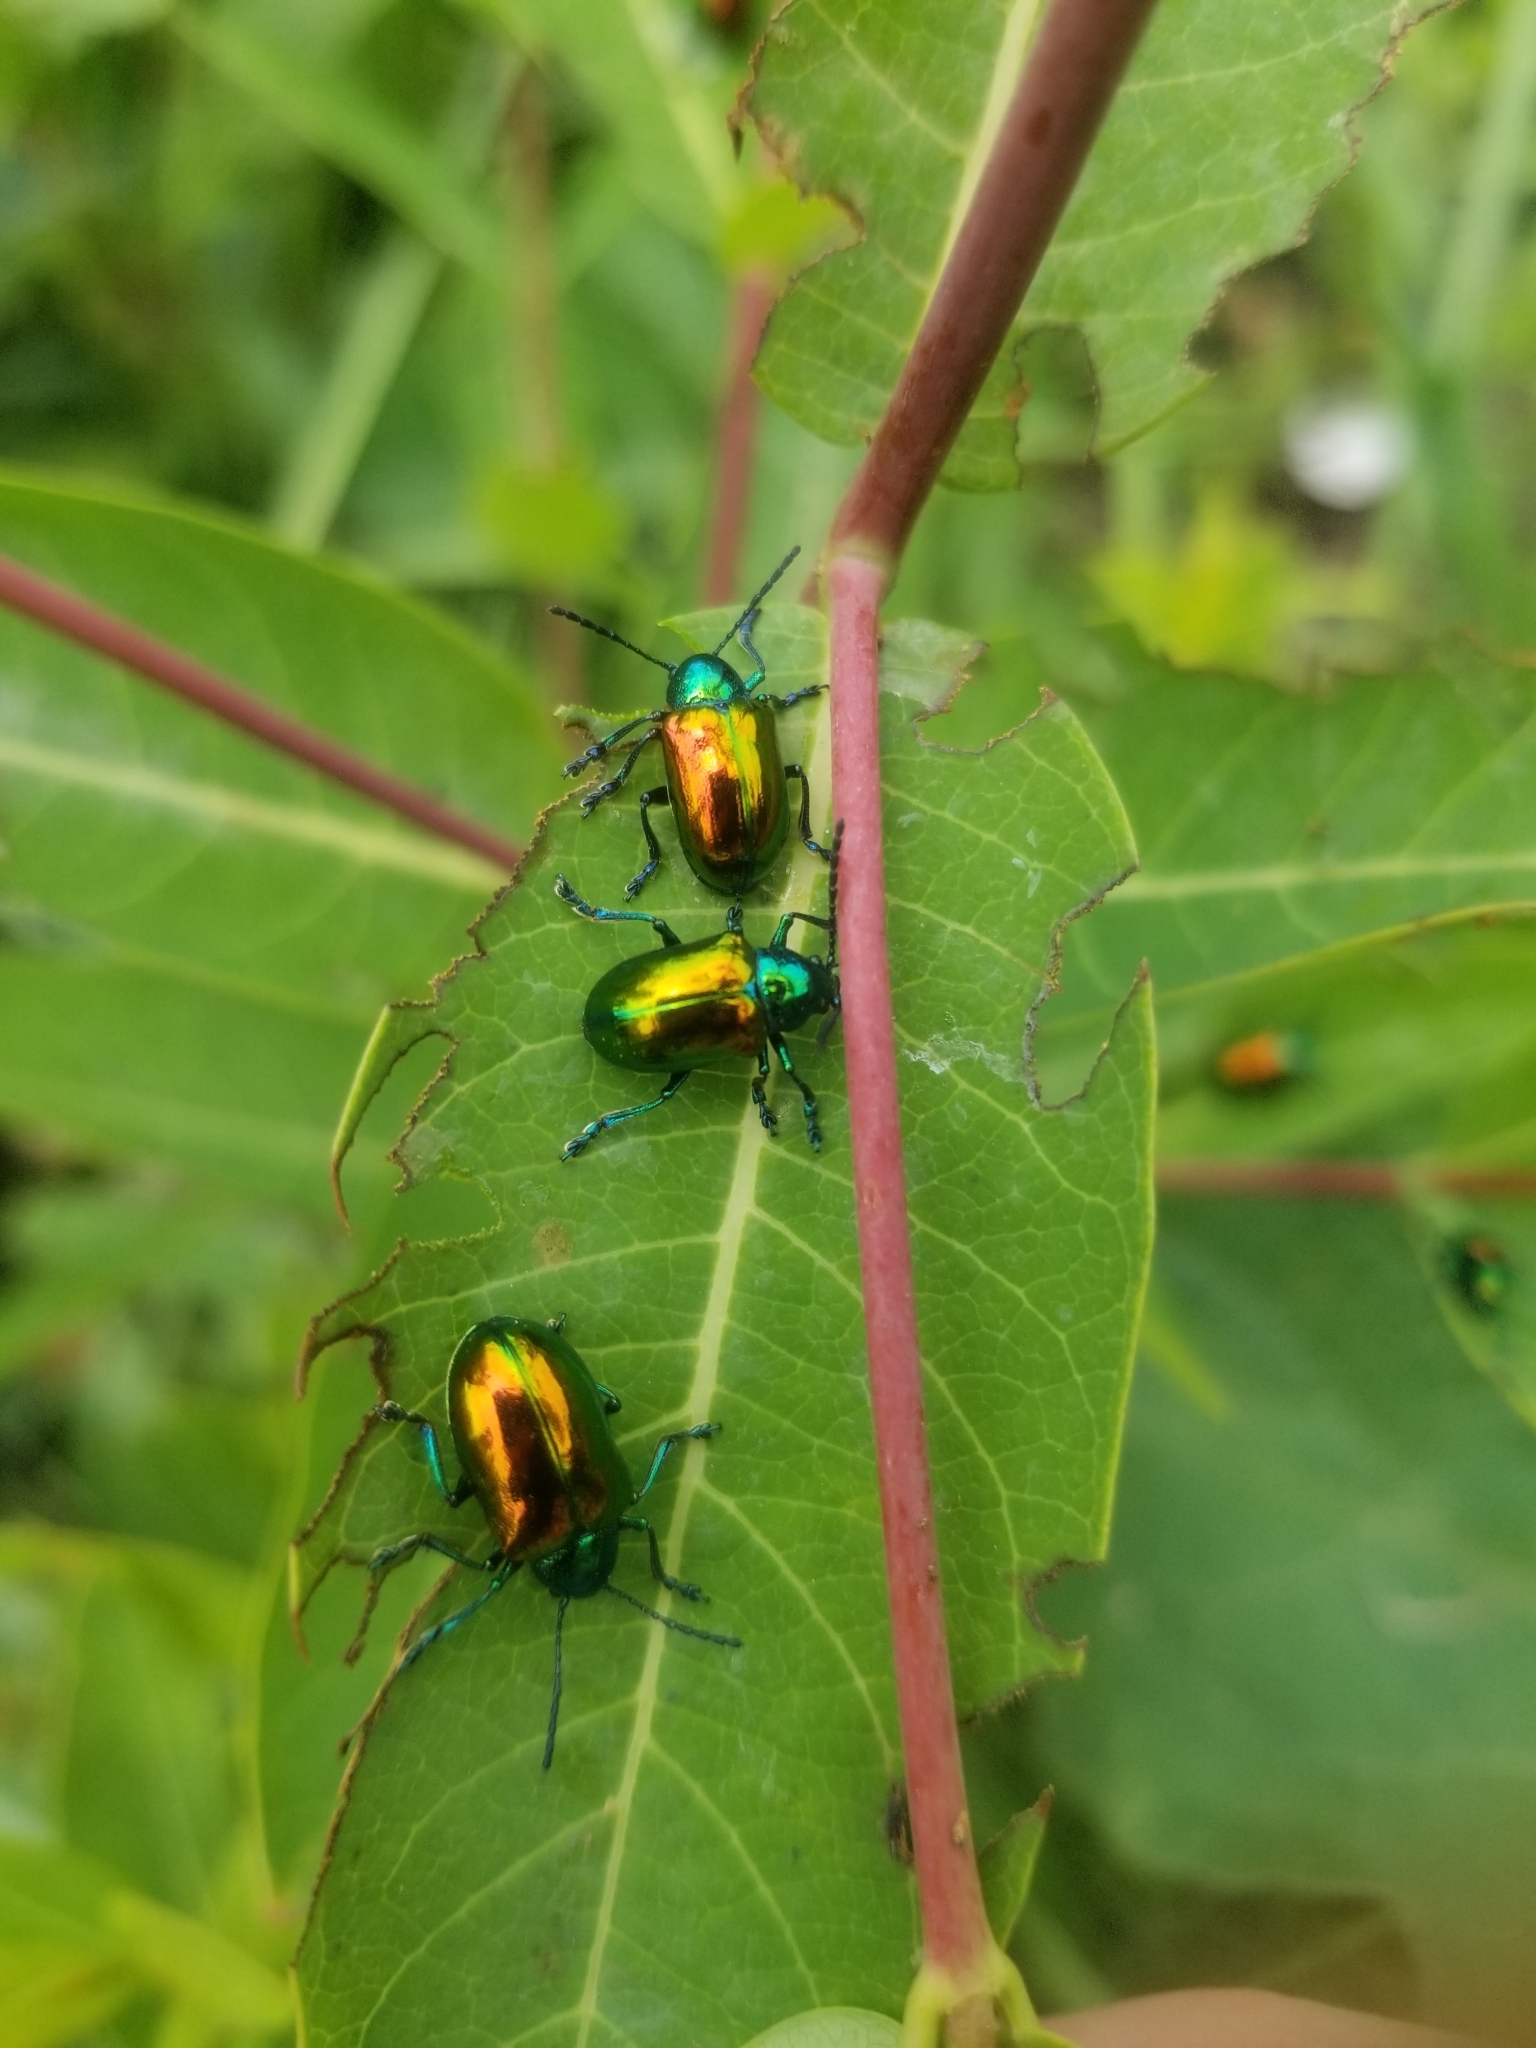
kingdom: Animalia
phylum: Arthropoda
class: Insecta
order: Coleoptera
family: Chrysomelidae
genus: Chrysochus
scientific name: Chrysochus auratus
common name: Dogbane leaf beetle
